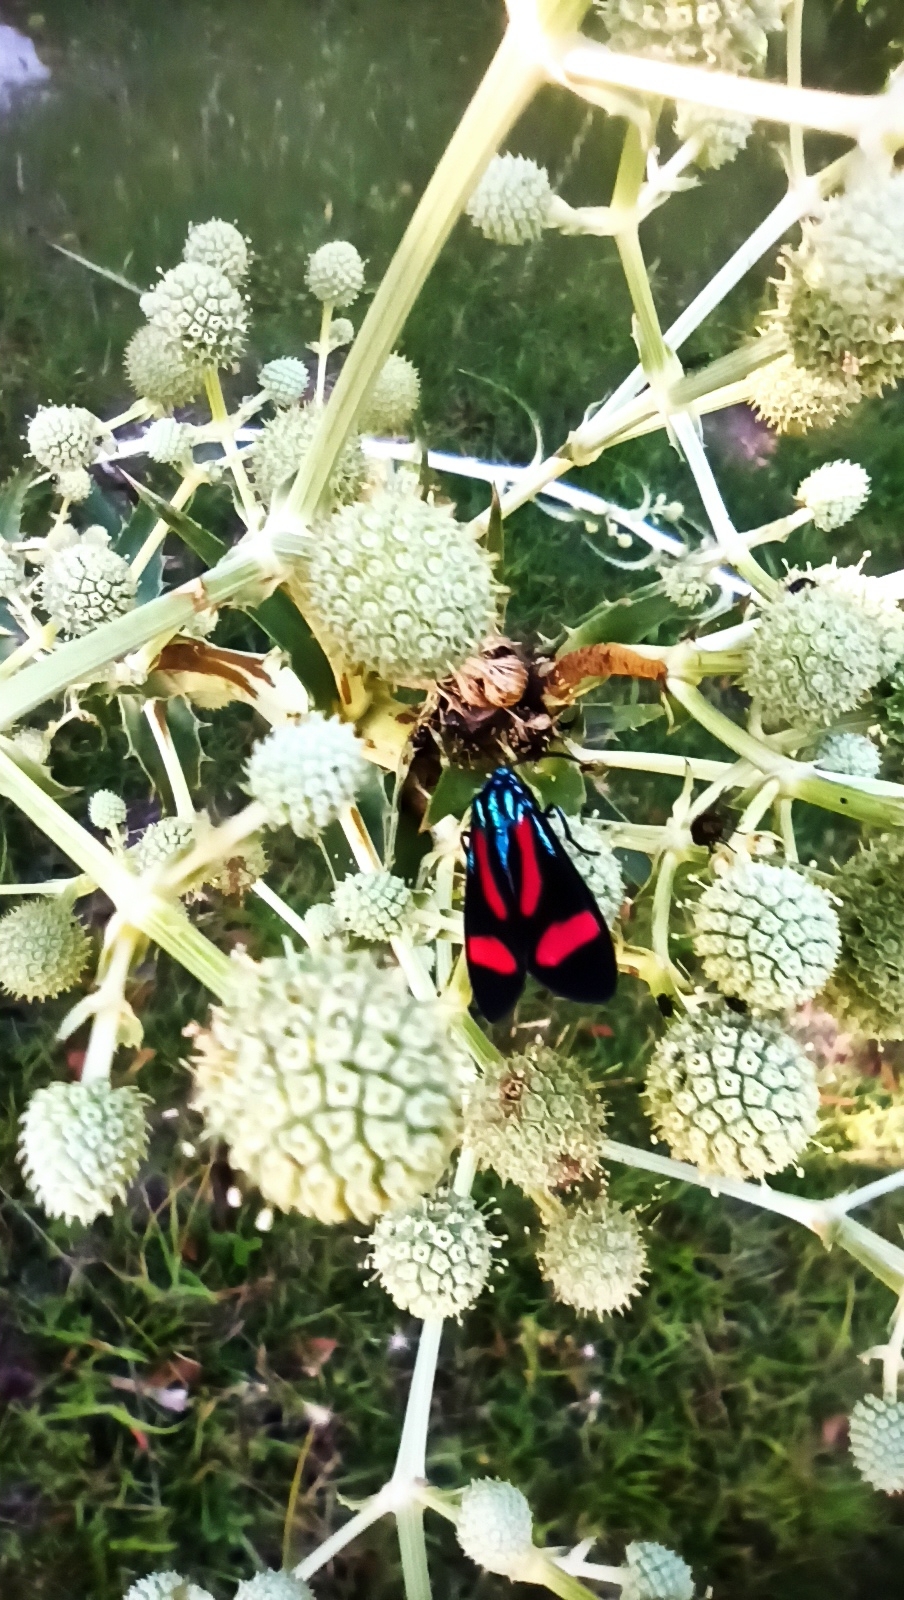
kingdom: Animalia
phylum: Arthropoda
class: Insecta
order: Lepidoptera
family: Erebidae
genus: Cyanopepla
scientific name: Cyanopepla jucunda
